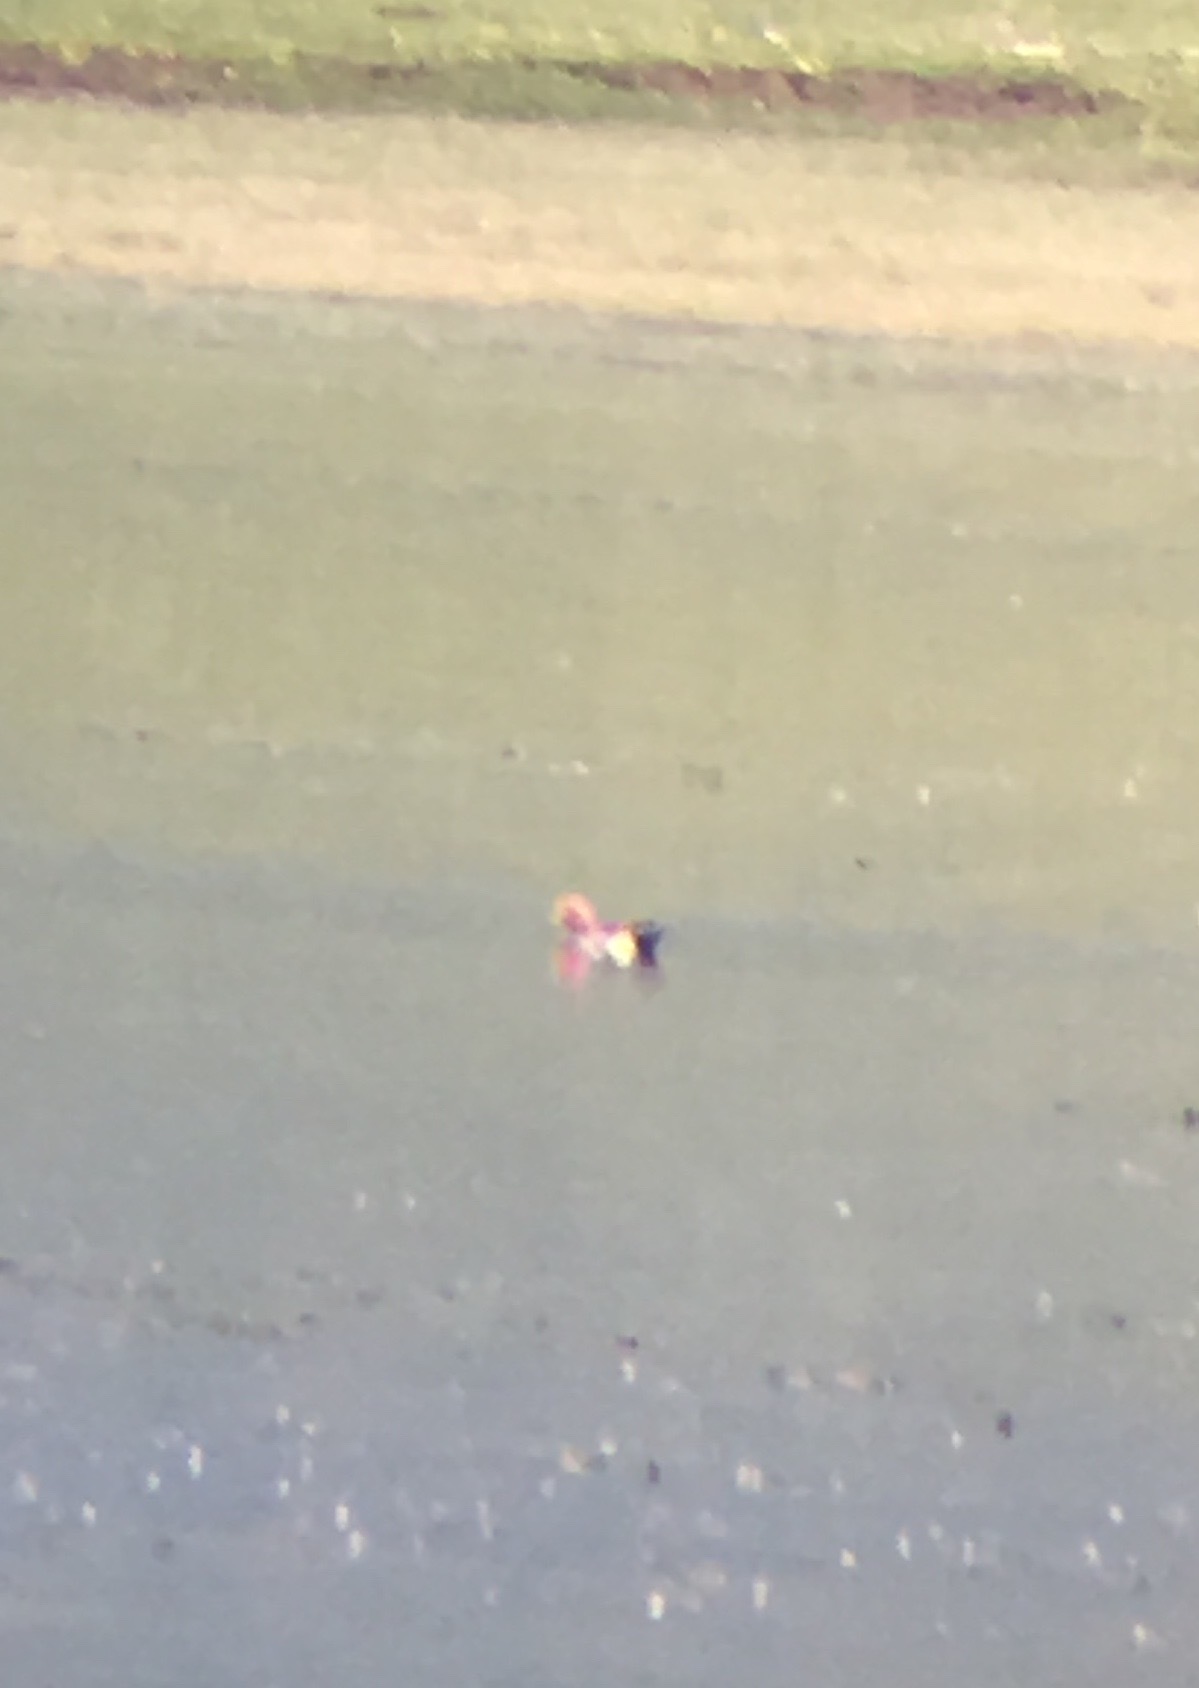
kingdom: Animalia
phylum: Chordata
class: Aves
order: Anseriformes
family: Anatidae
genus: Mareca
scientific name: Mareca penelope
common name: Eurasian wigeon
